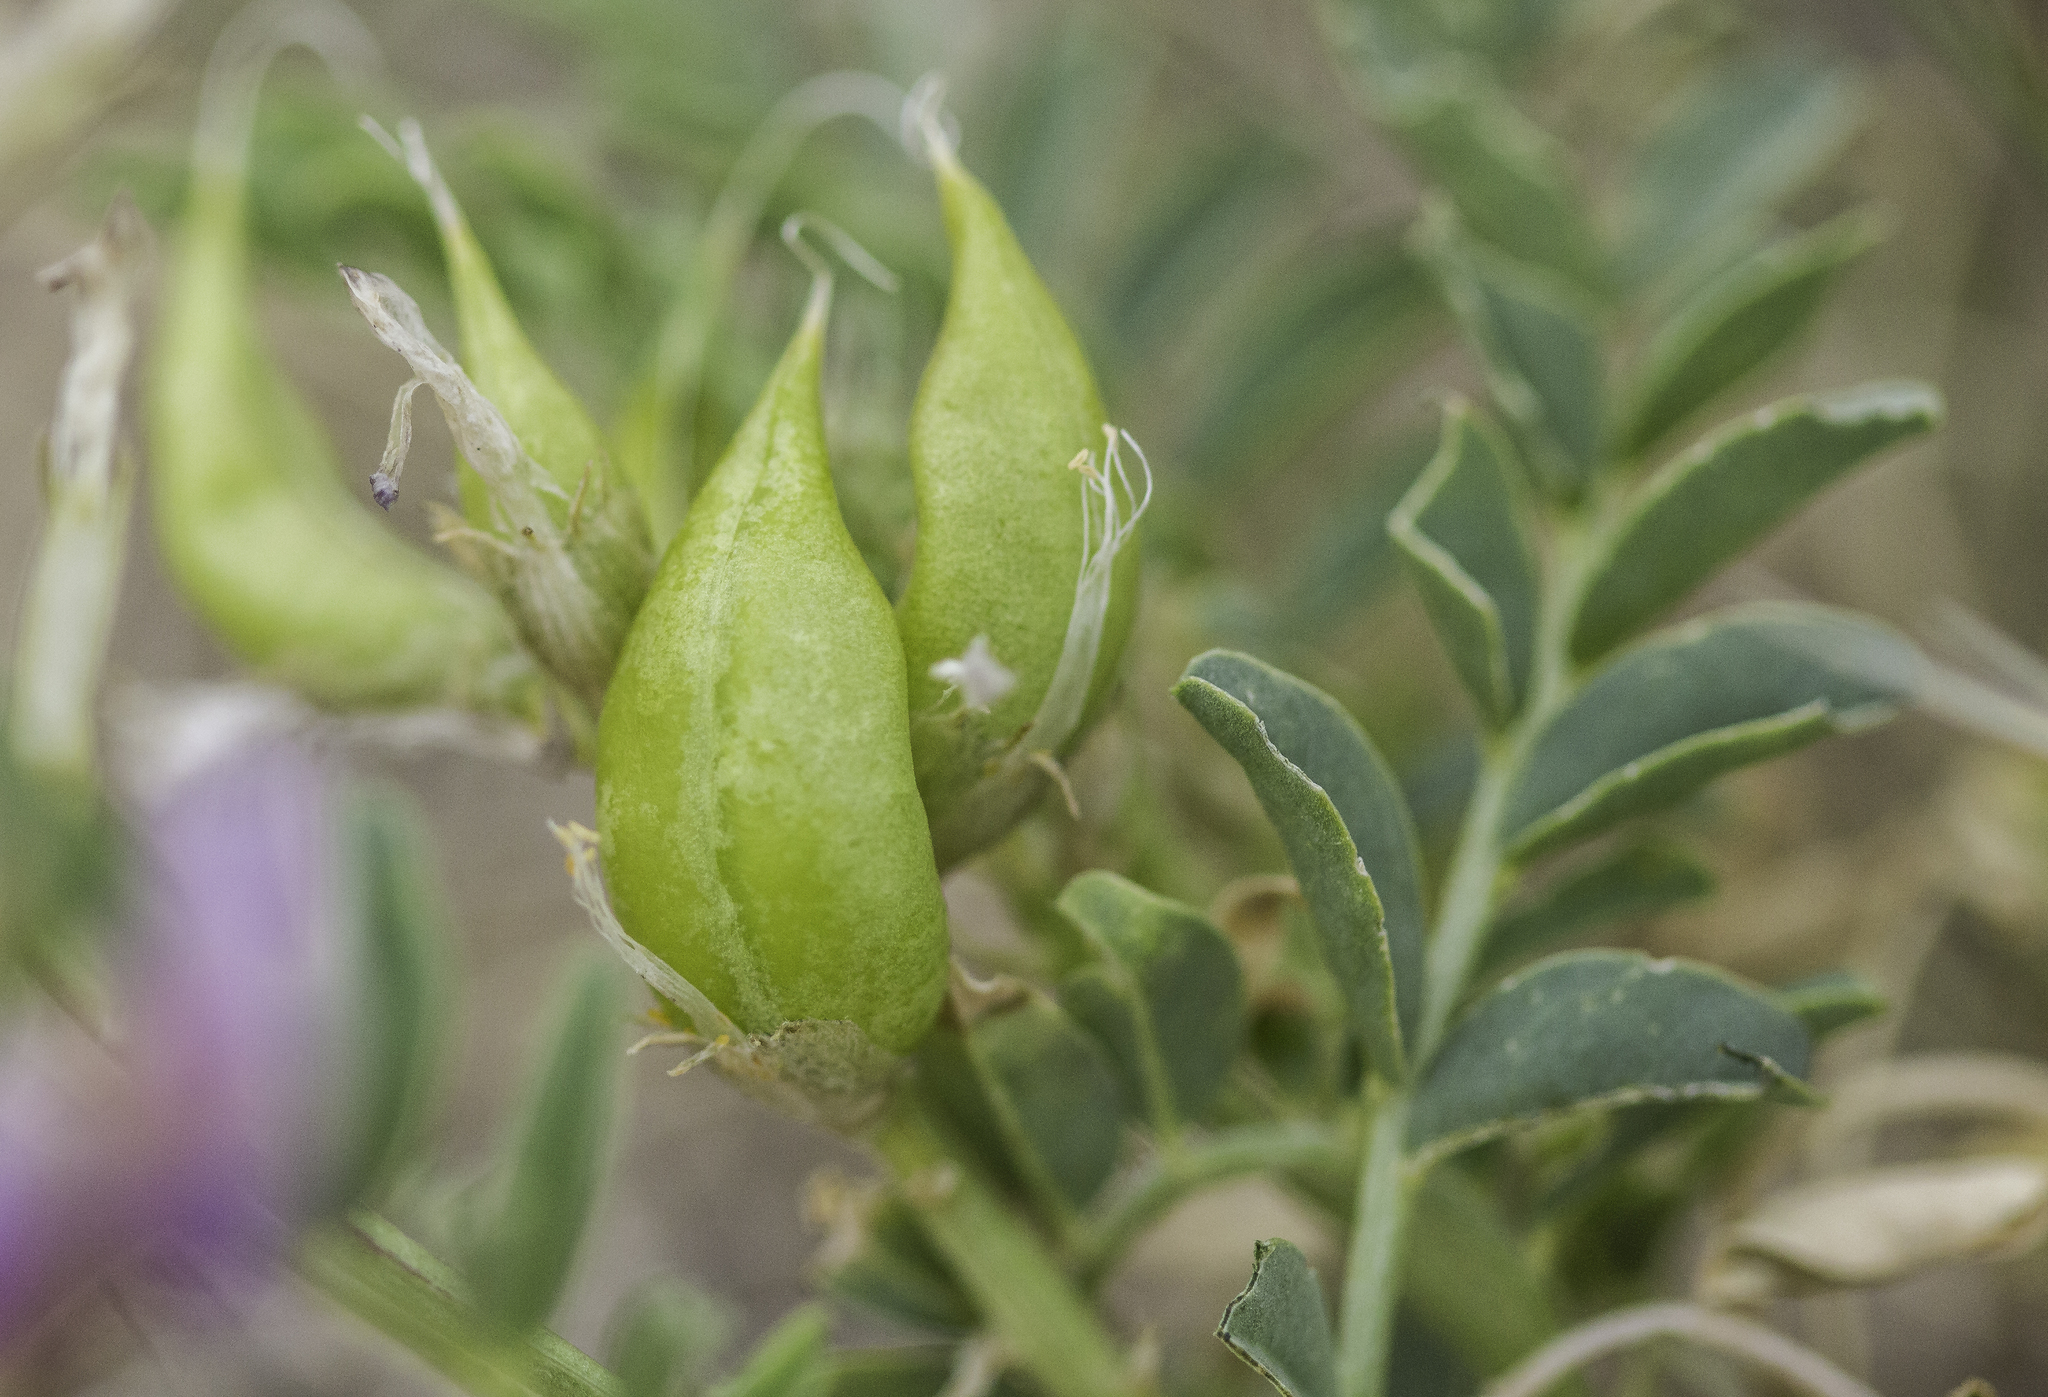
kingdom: Plantae
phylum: Tracheophyta
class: Magnoliopsida
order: Fabales
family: Fabaceae
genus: Astragalus
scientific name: Astragalus lentiginosus
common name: Freckled milkvetch
